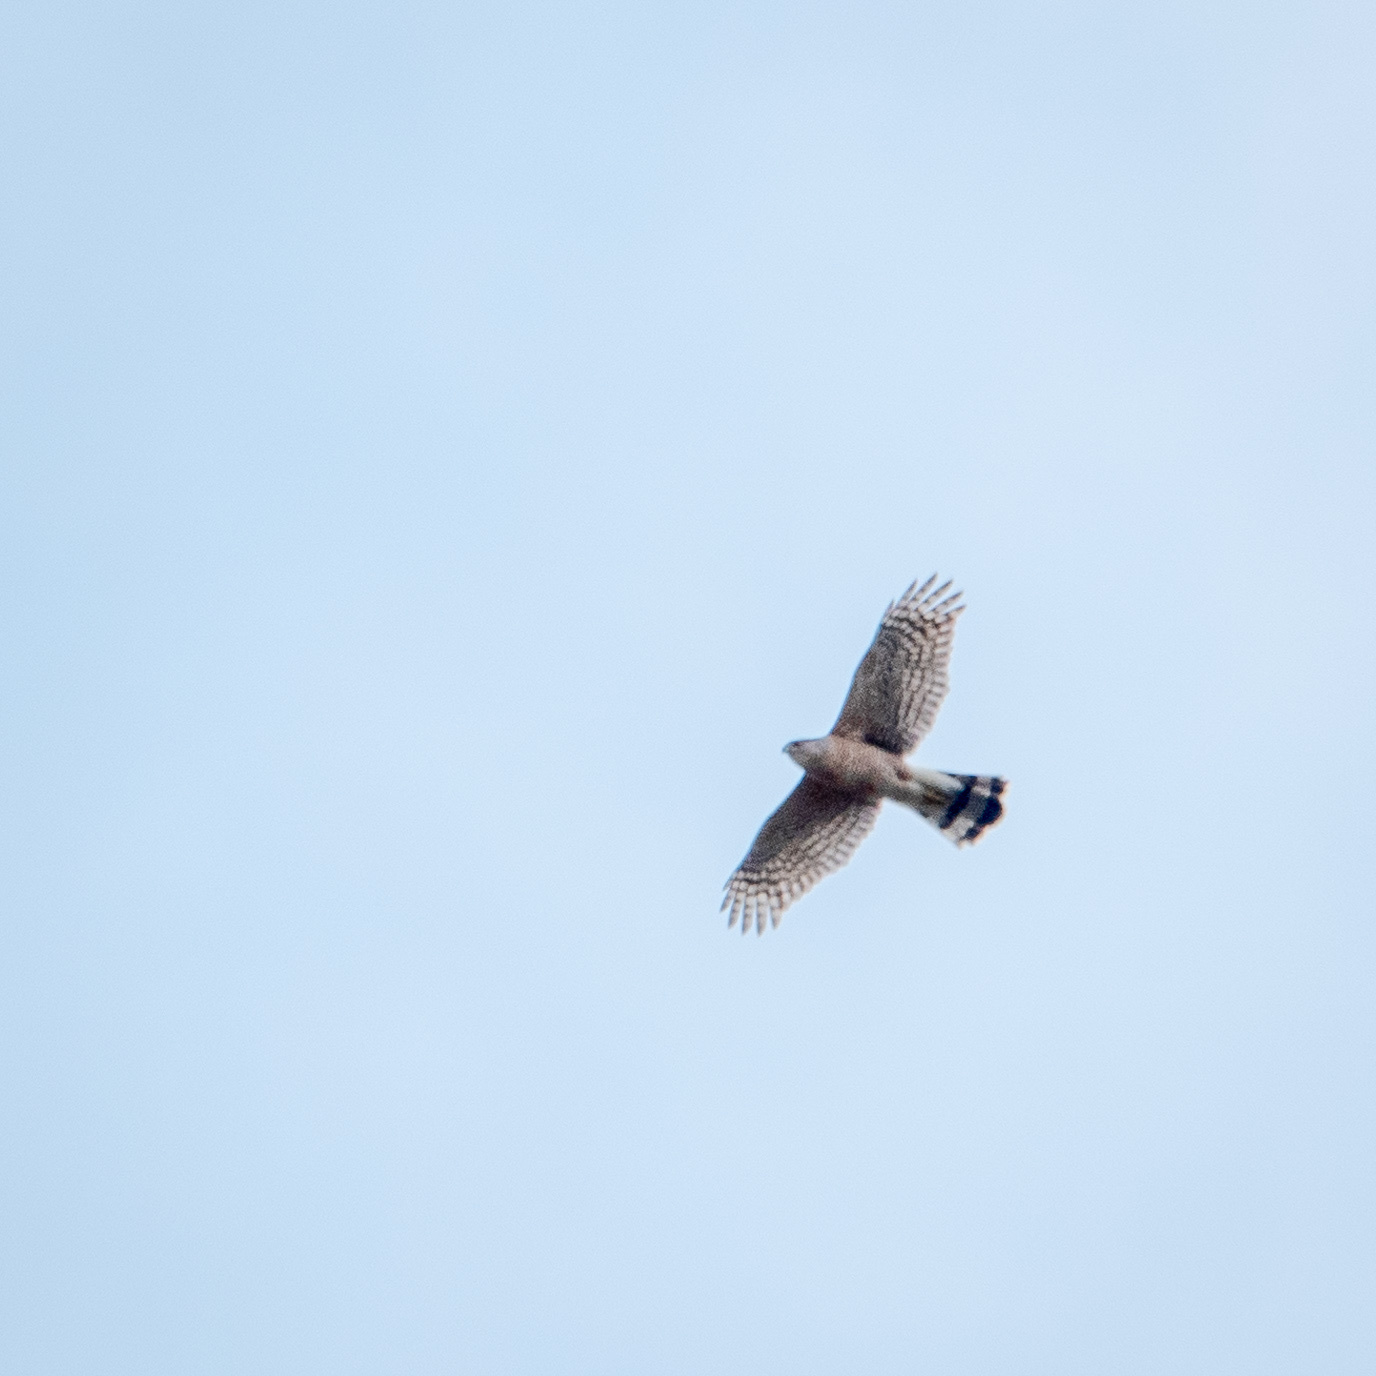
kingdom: Animalia
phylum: Chordata
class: Aves
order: Accipitriformes
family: Accipitridae
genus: Accipiter
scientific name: Accipiter cooperii
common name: Cooper's hawk
